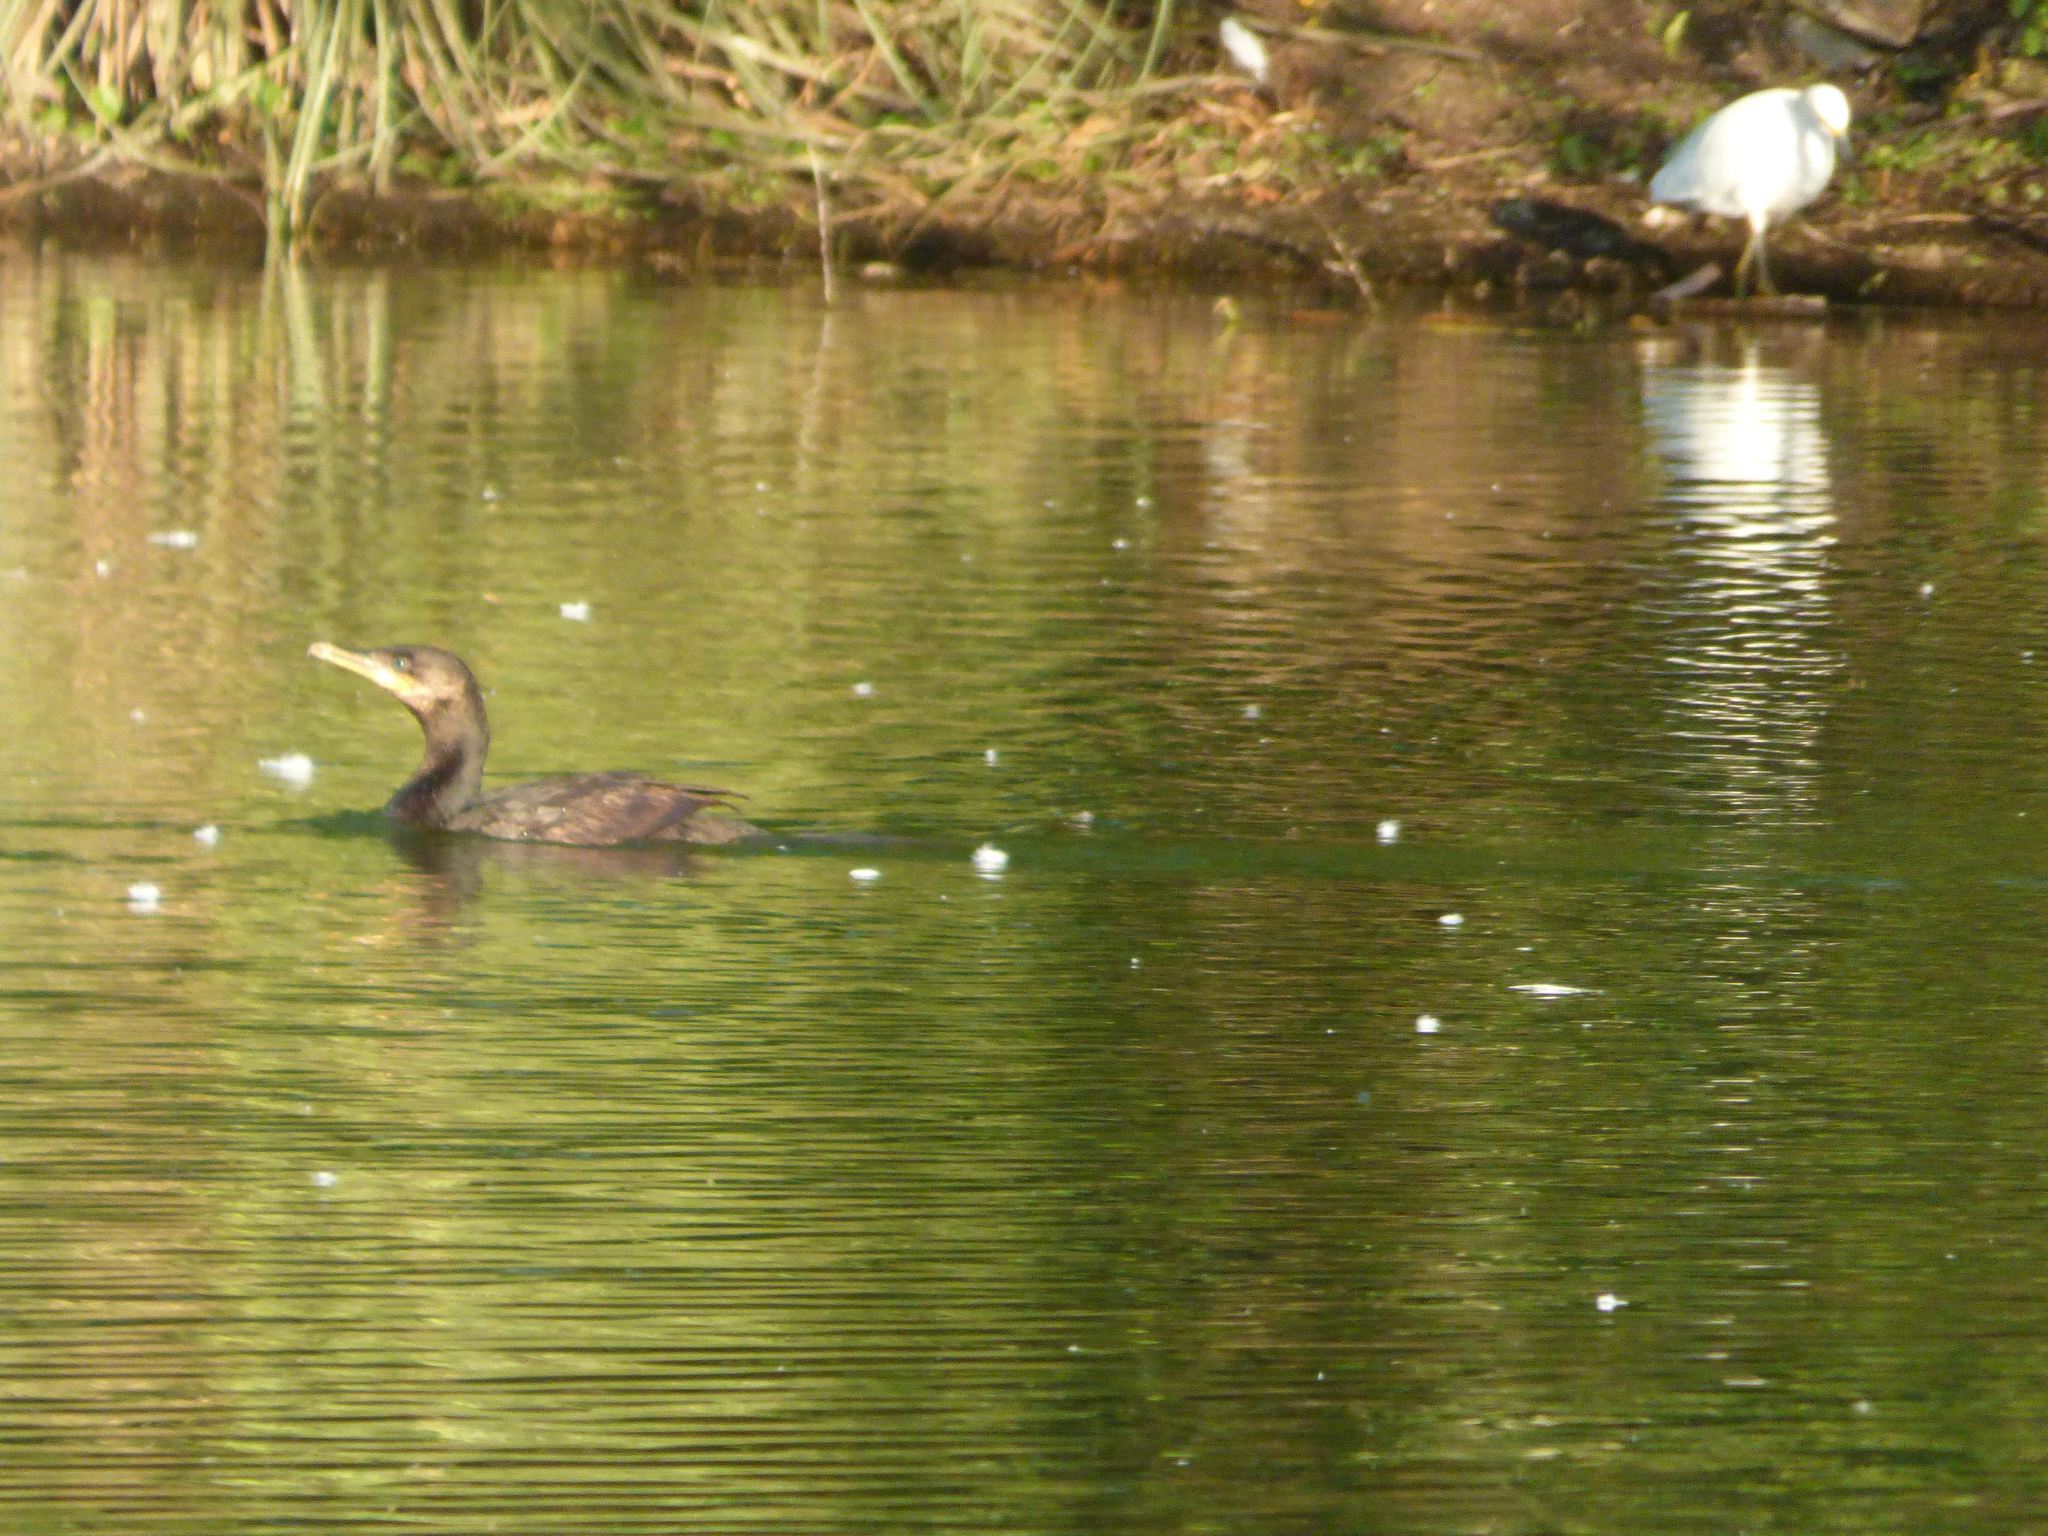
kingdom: Animalia
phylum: Chordata
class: Aves
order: Suliformes
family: Phalacrocoracidae
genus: Phalacrocorax
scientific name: Phalacrocorax brasilianus
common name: Neotropic cormorant
